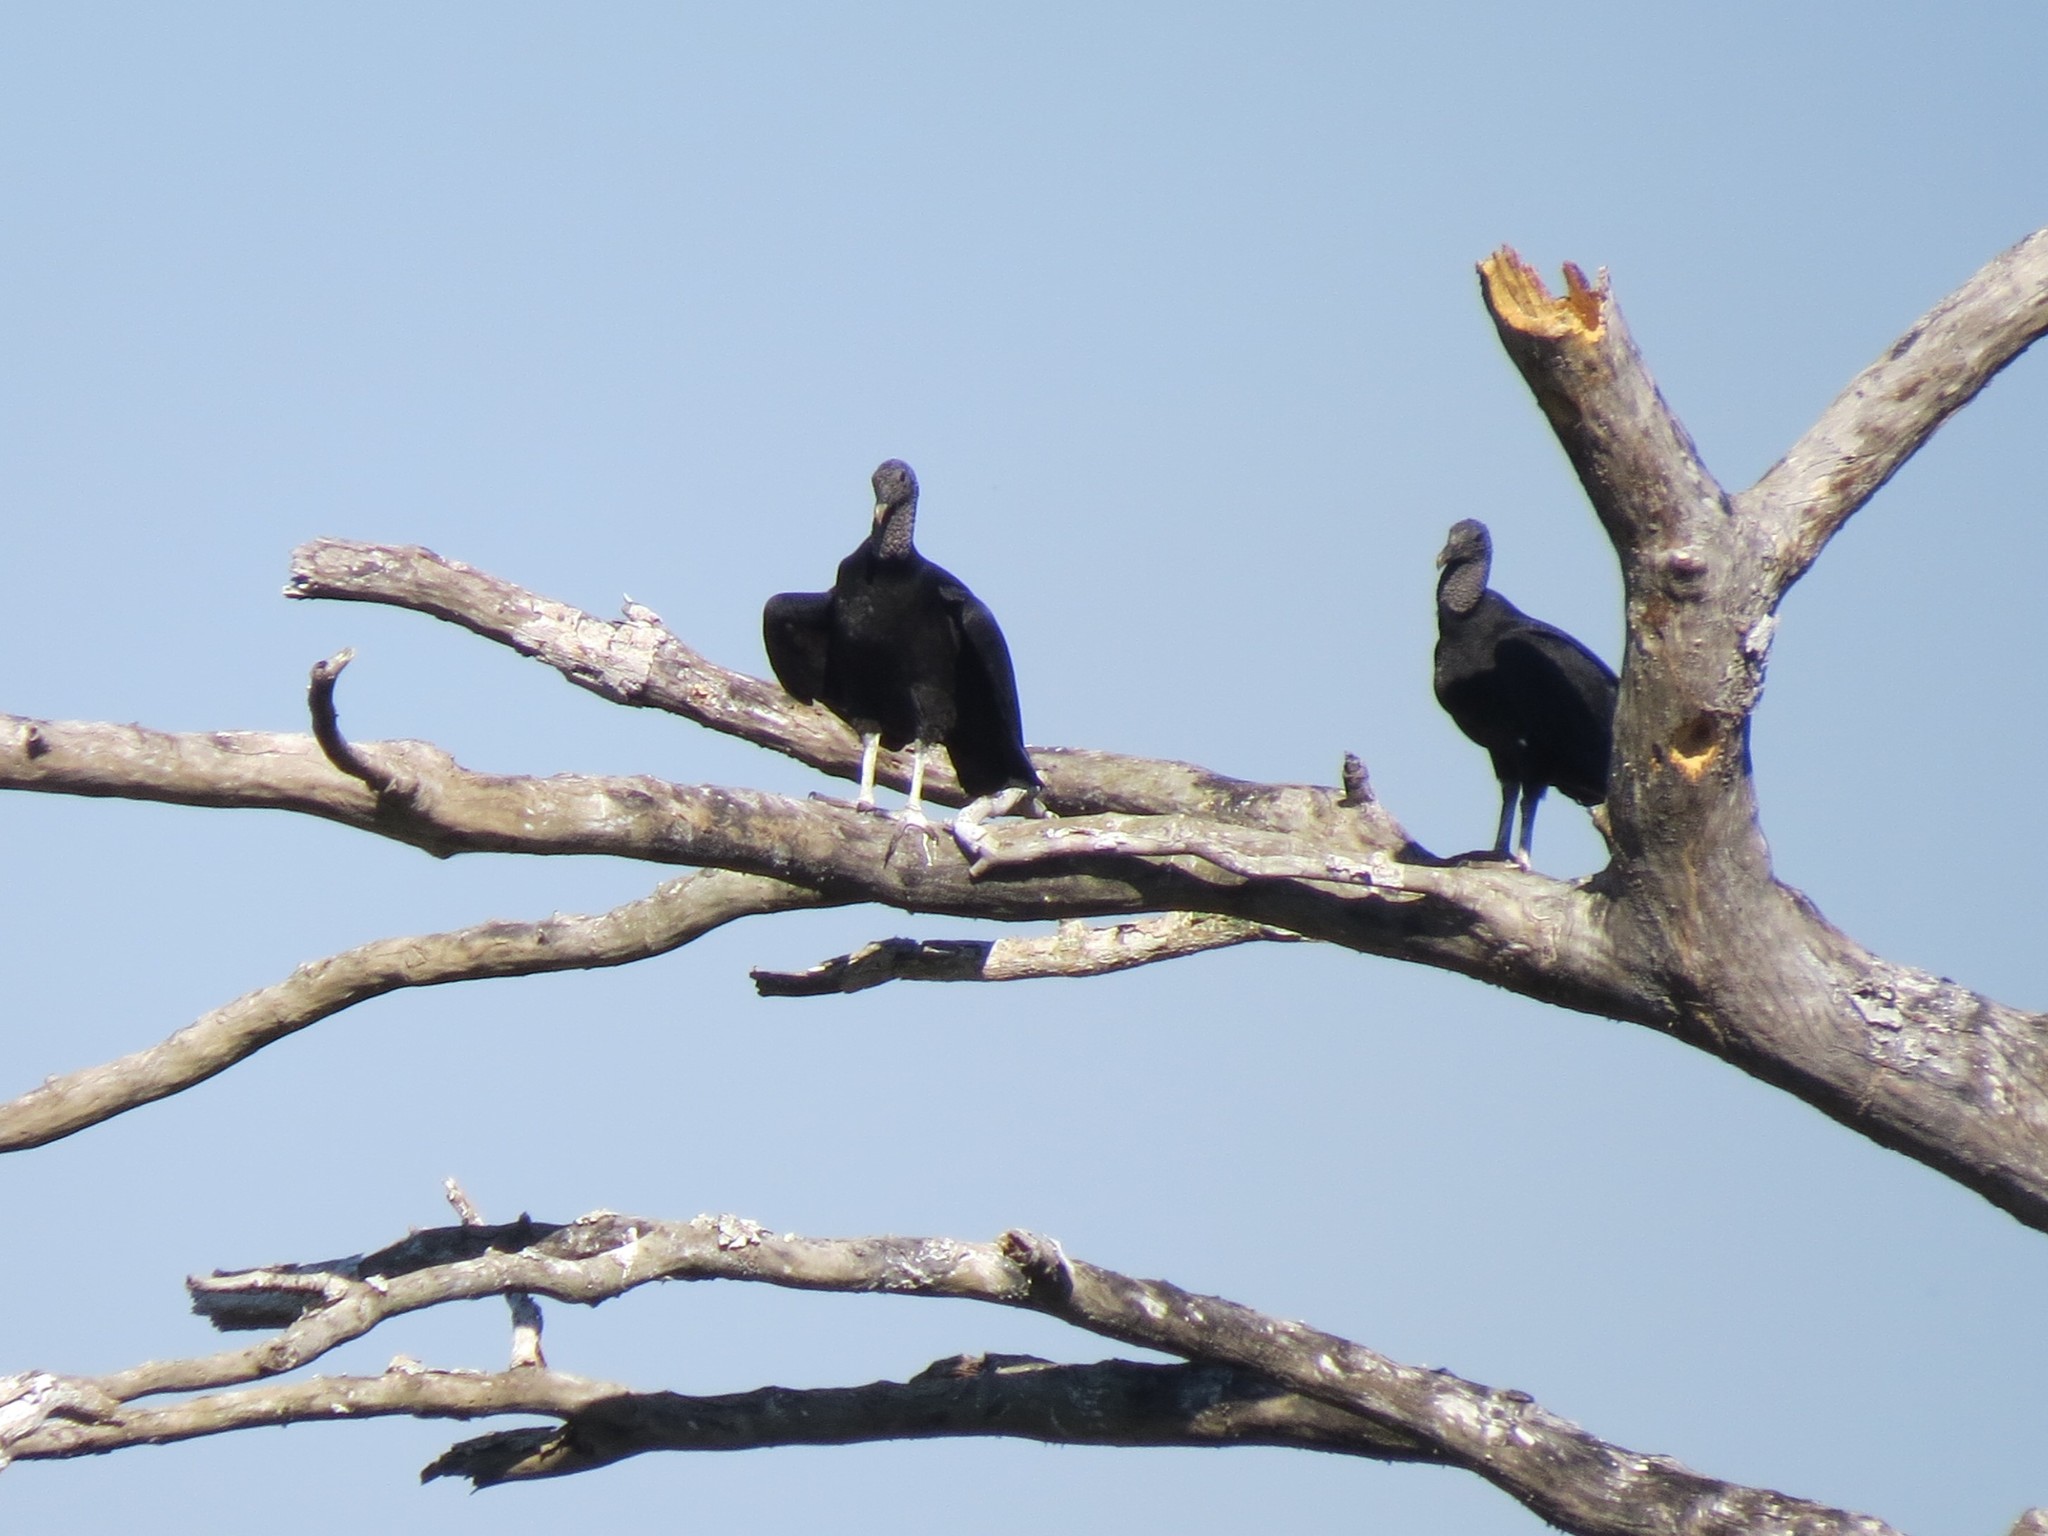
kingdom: Animalia
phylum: Chordata
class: Aves
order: Accipitriformes
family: Cathartidae
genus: Coragyps
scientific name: Coragyps atratus
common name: Black vulture
